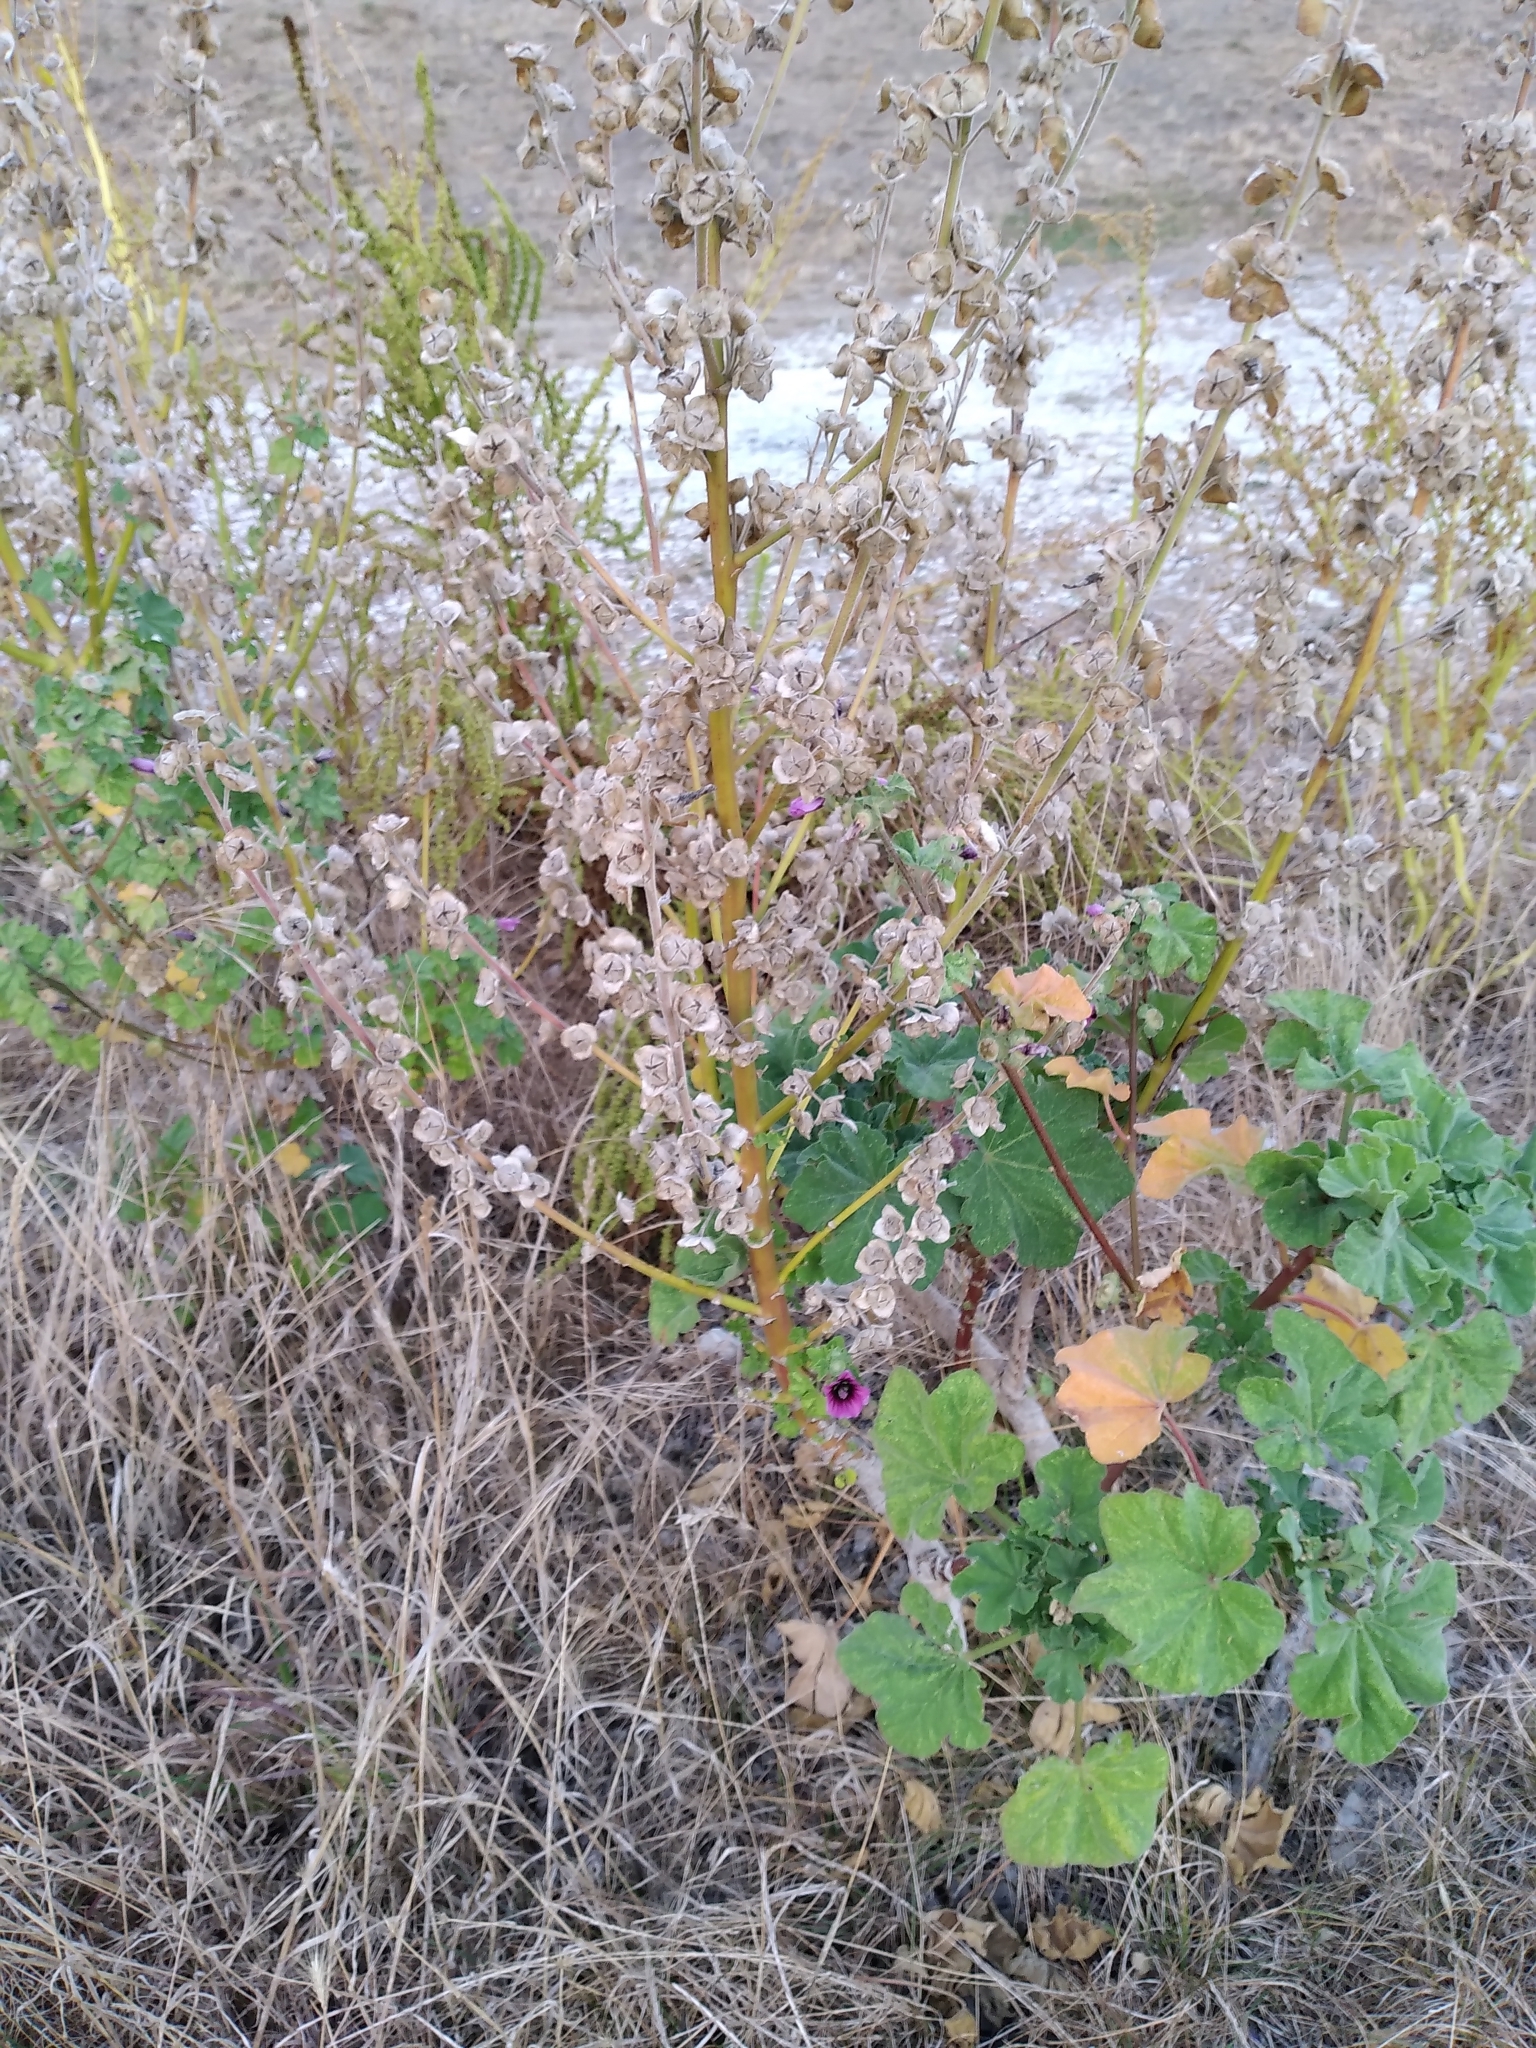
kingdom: Plantae
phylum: Tracheophyta
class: Magnoliopsida
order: Malvales
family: Malvaceae
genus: Malva
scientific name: Malva arborea
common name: Tree mallow
